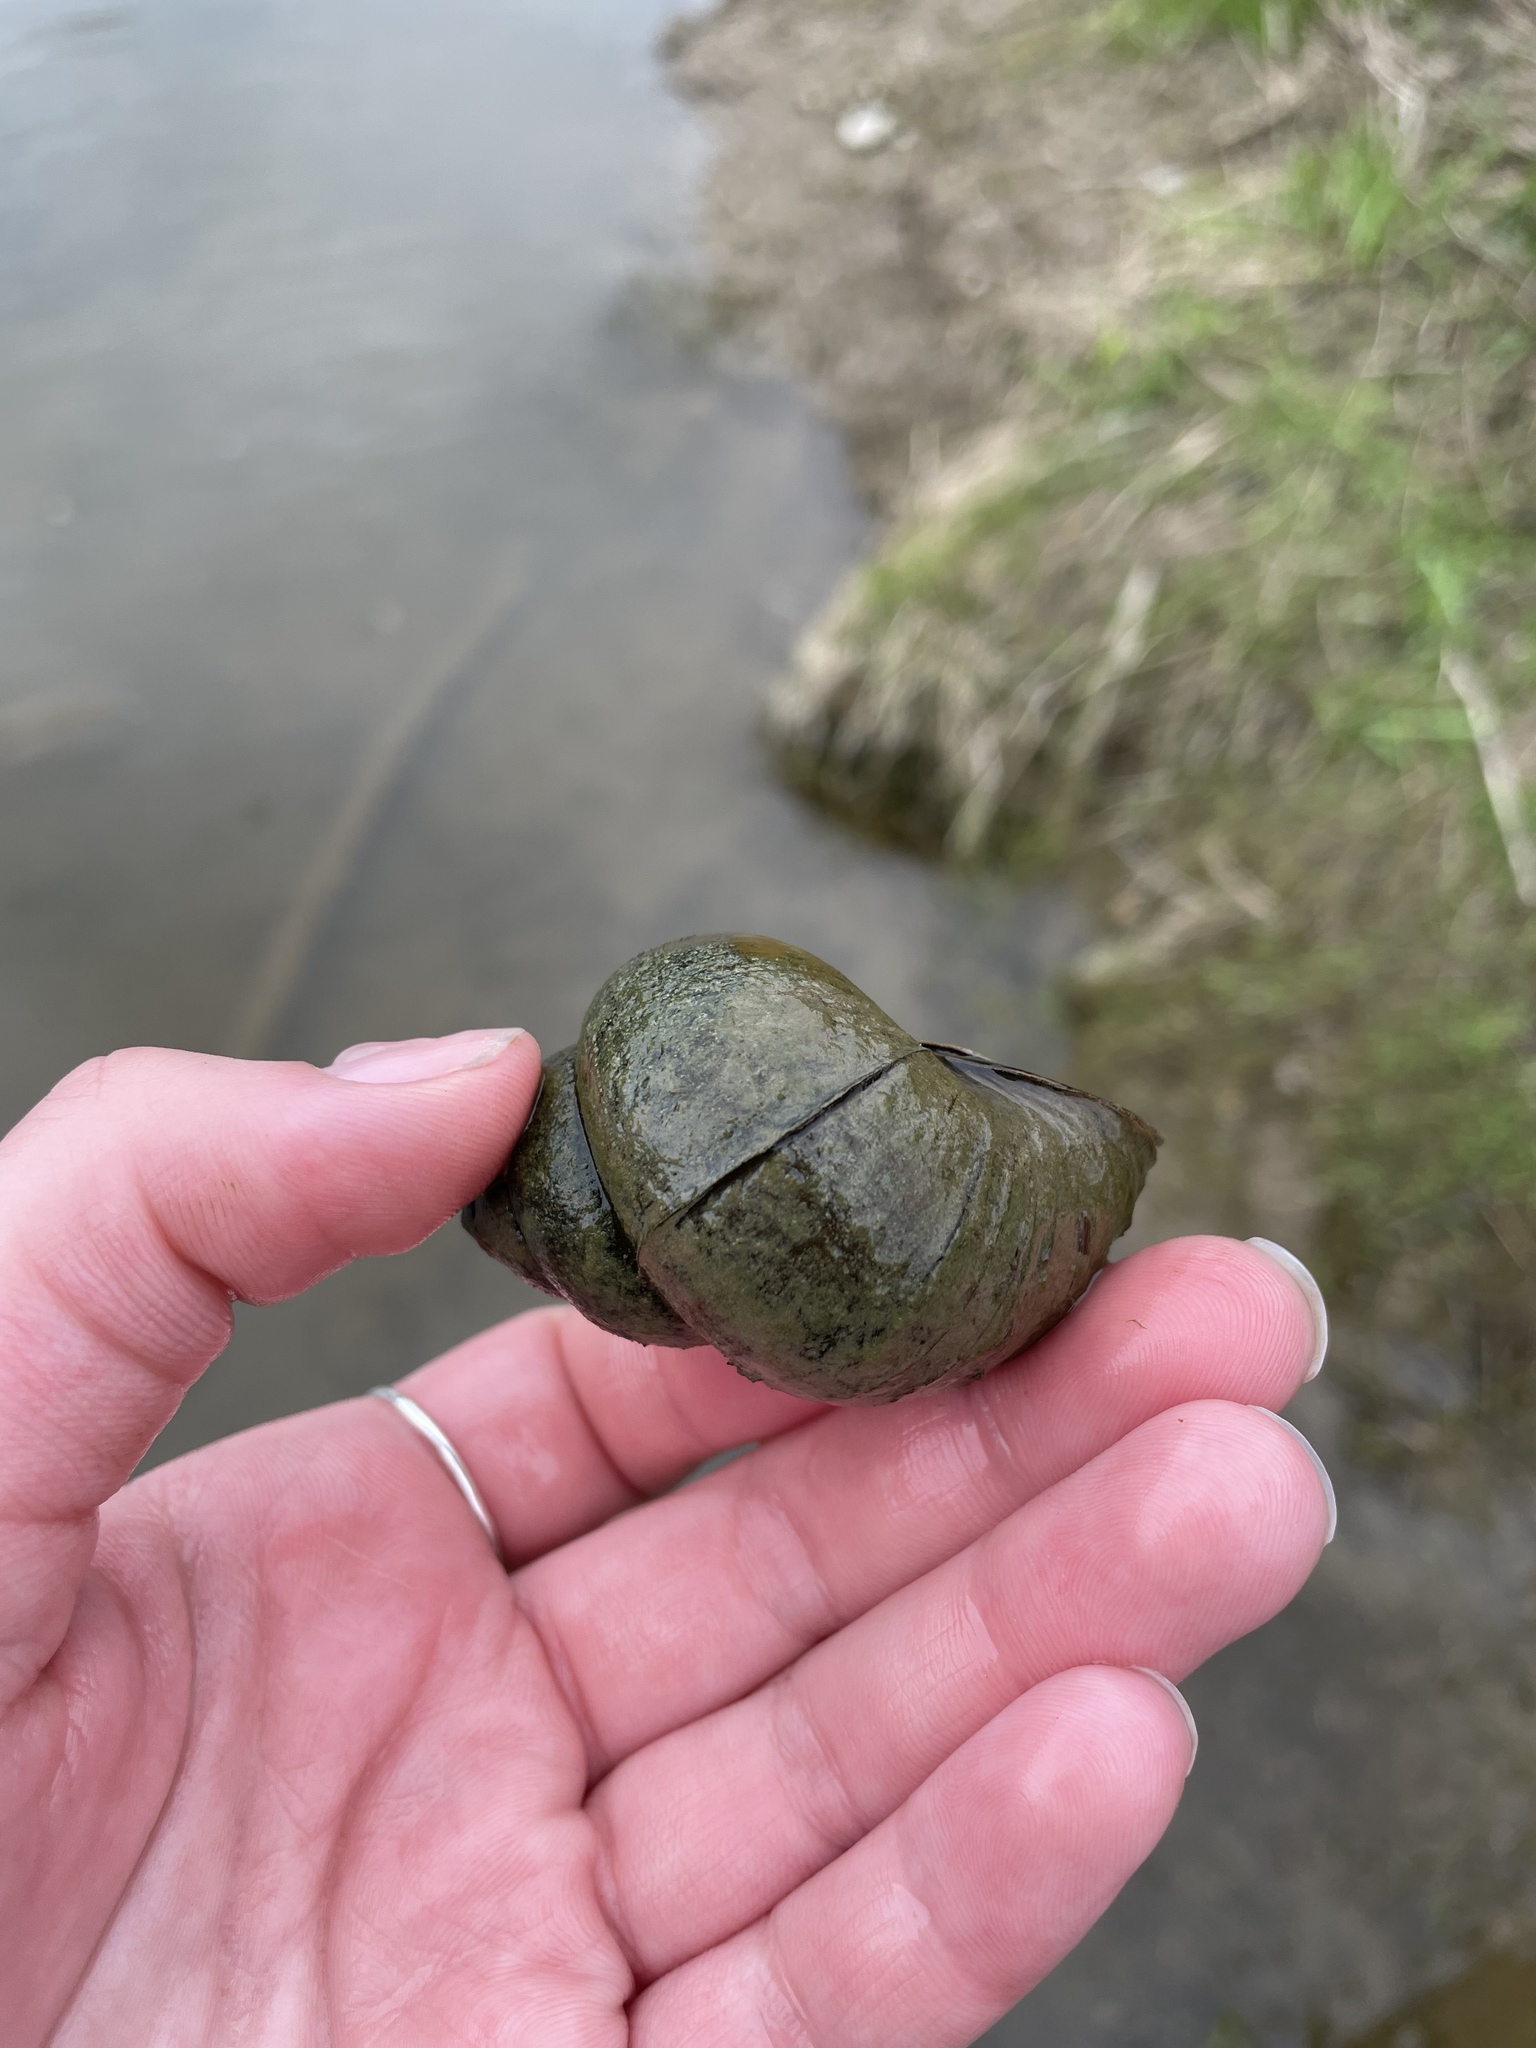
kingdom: Animalia
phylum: Mollusca
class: Gastropoda
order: Architaenioglossa
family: Viviparidae
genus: Cipangopaludina
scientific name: Cipangopaludina chinensis
